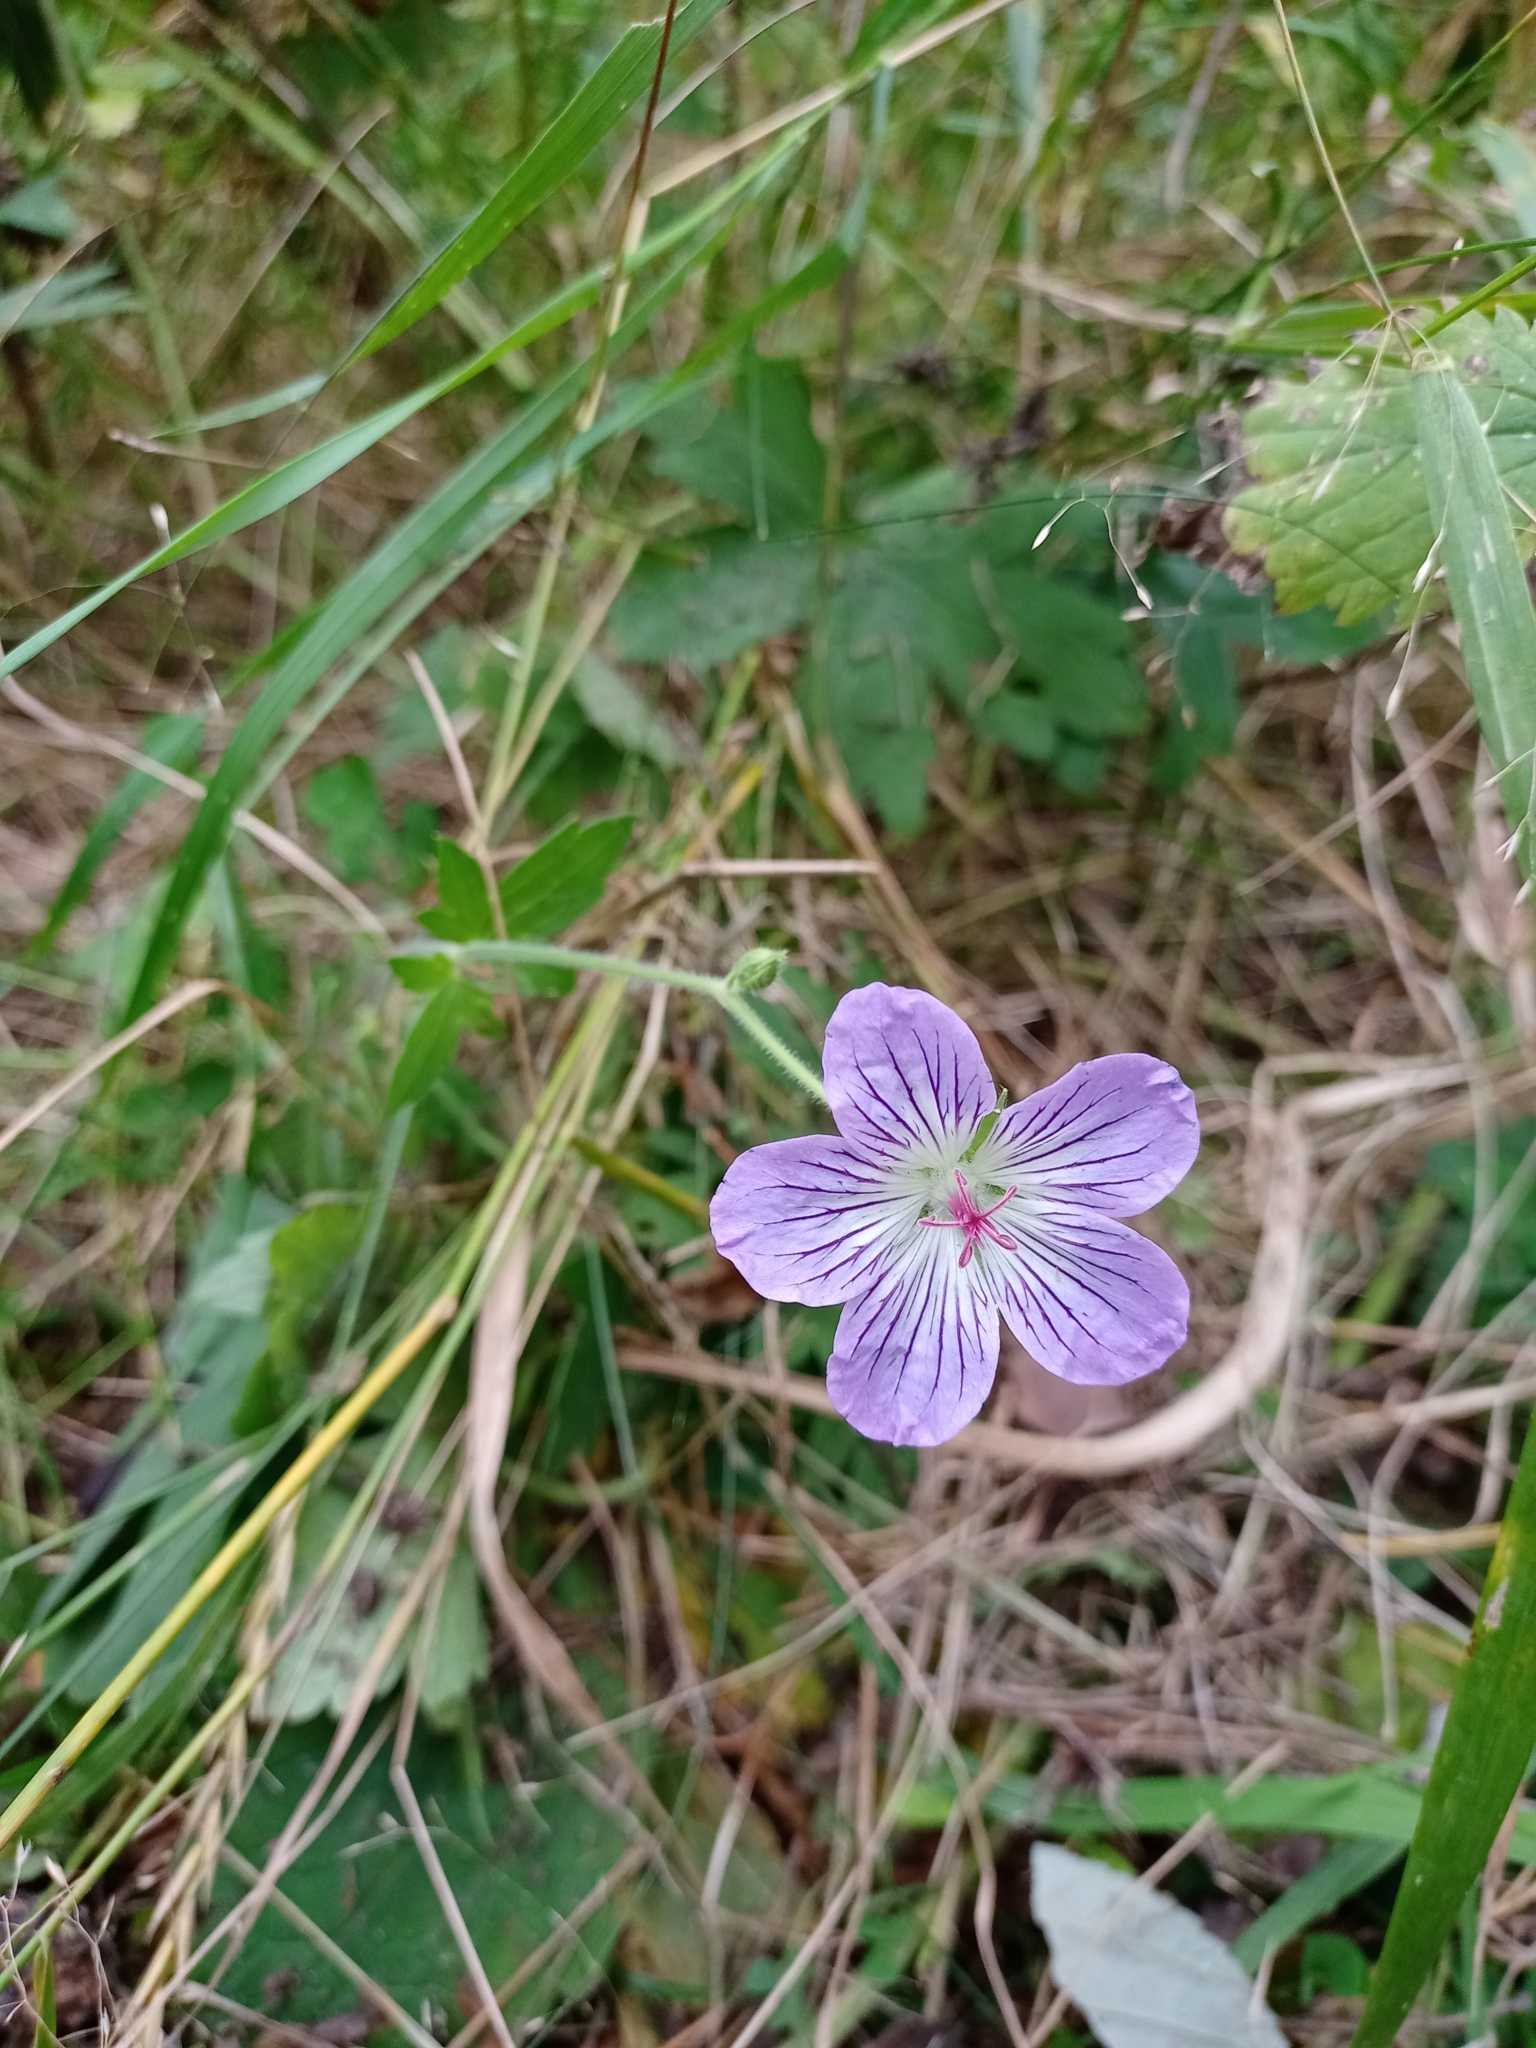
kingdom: Plantae
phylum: Tracheophyta
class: Magnoliopsida
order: Geraniales
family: Geraniaceae
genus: Geranium
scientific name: Geranium wlassovianum
